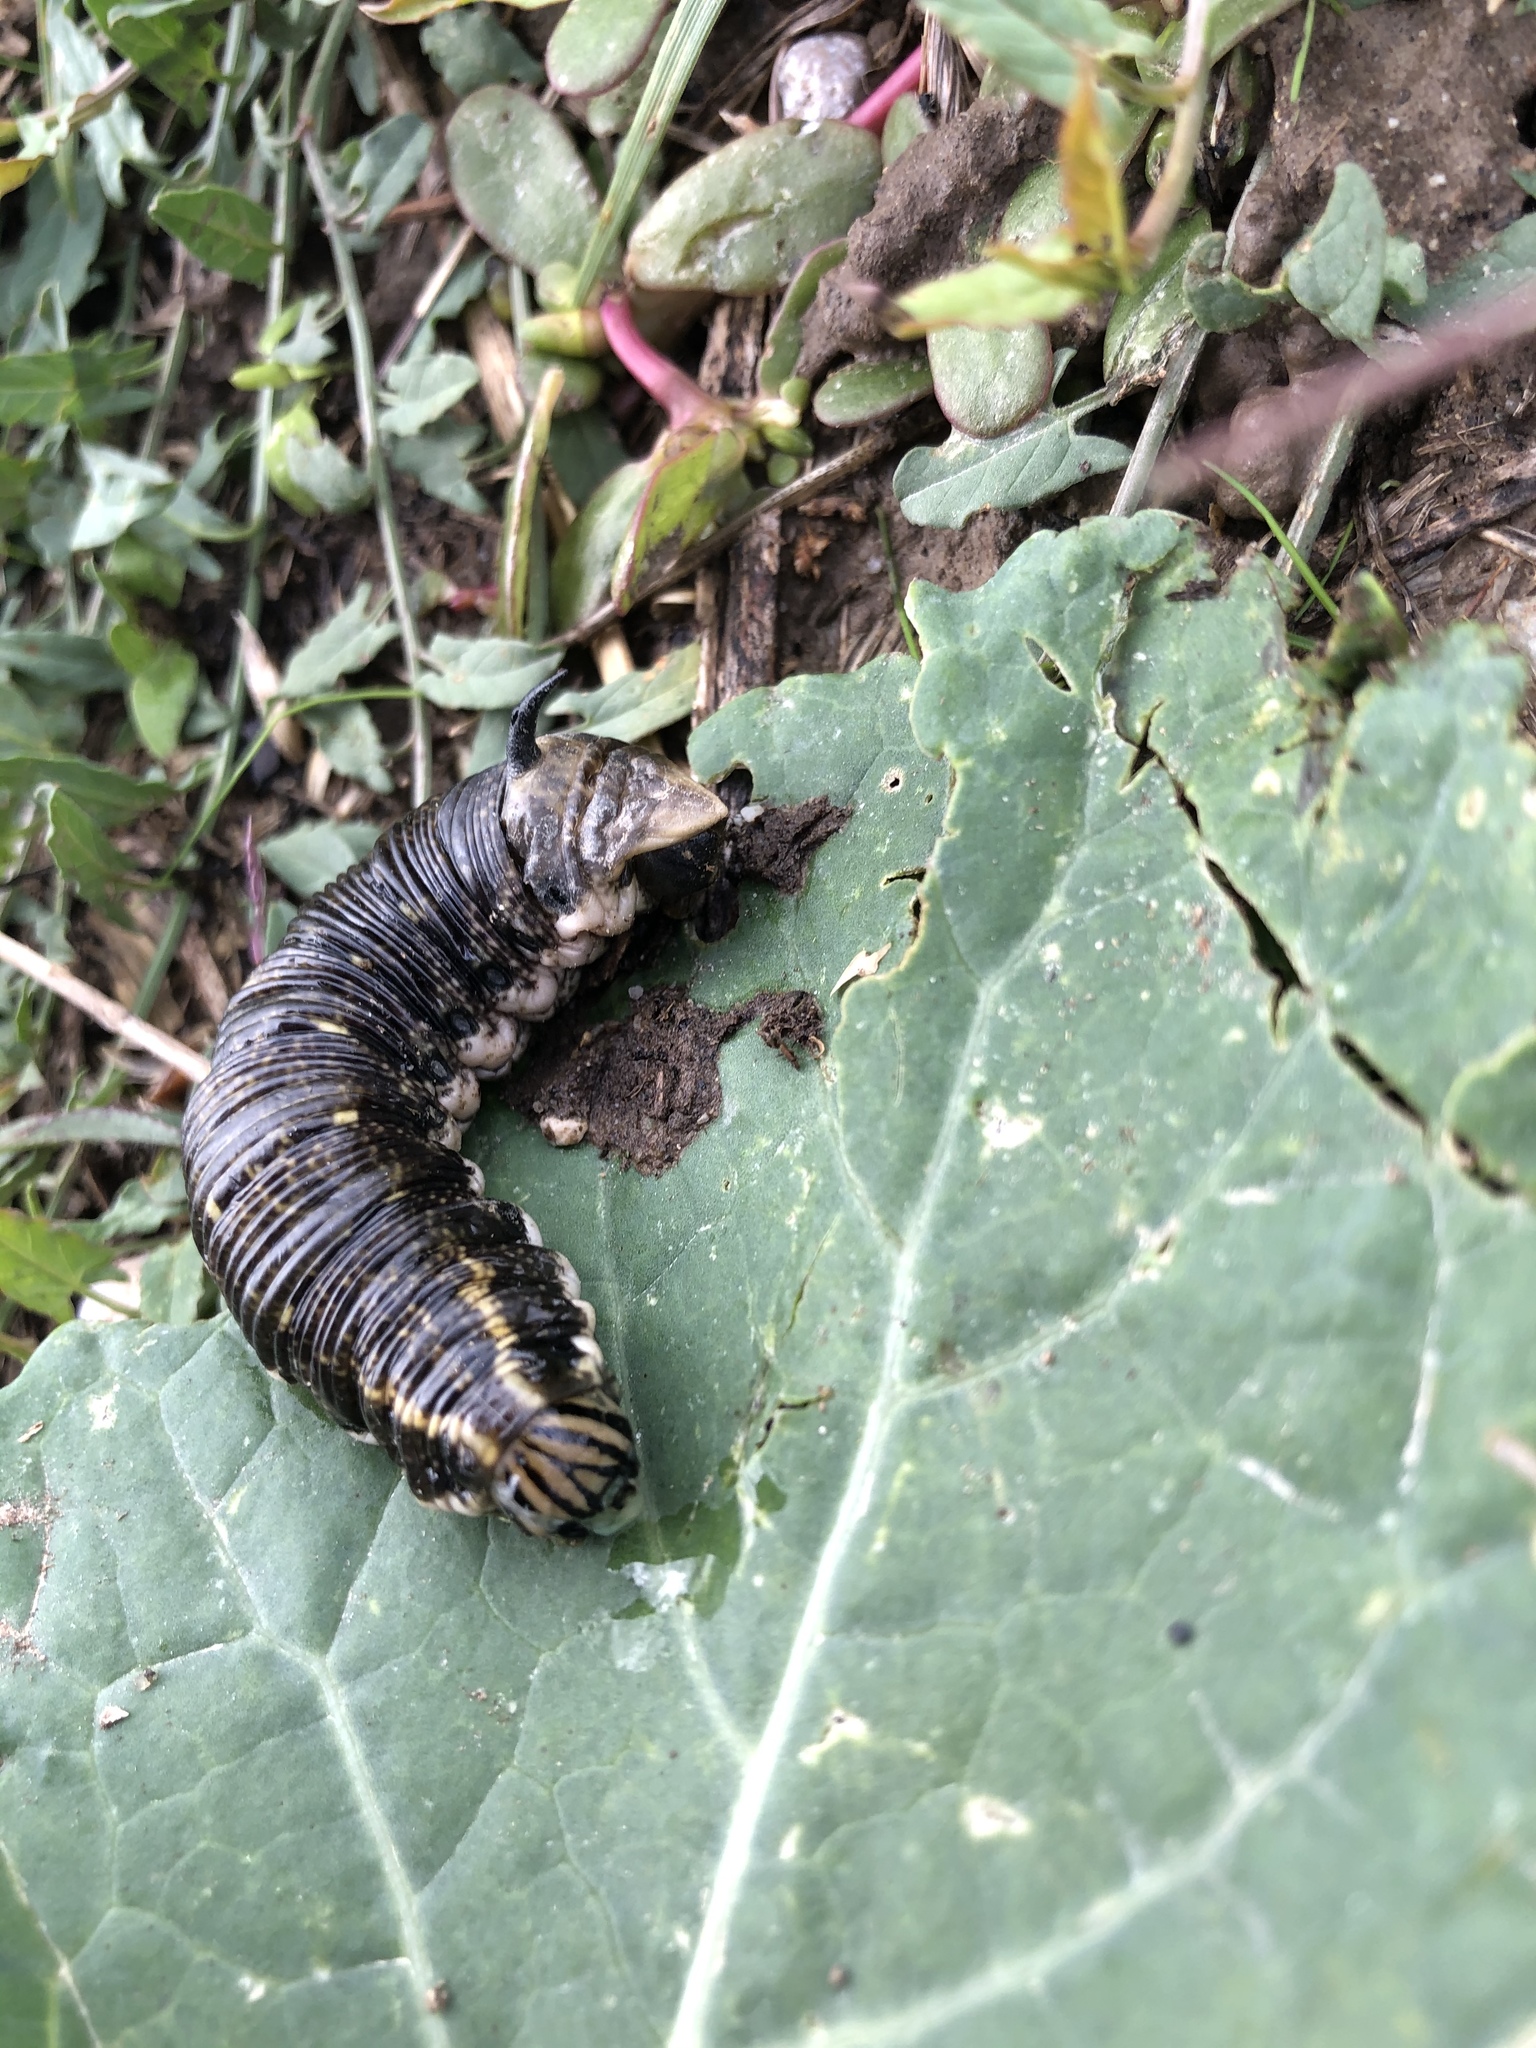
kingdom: Animalia
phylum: Arthropoda
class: Insecta
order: Lepidoptera
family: Sphingidae
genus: Agrius
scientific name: Agrius convolvuli
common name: Convolvulus hawkmoth
